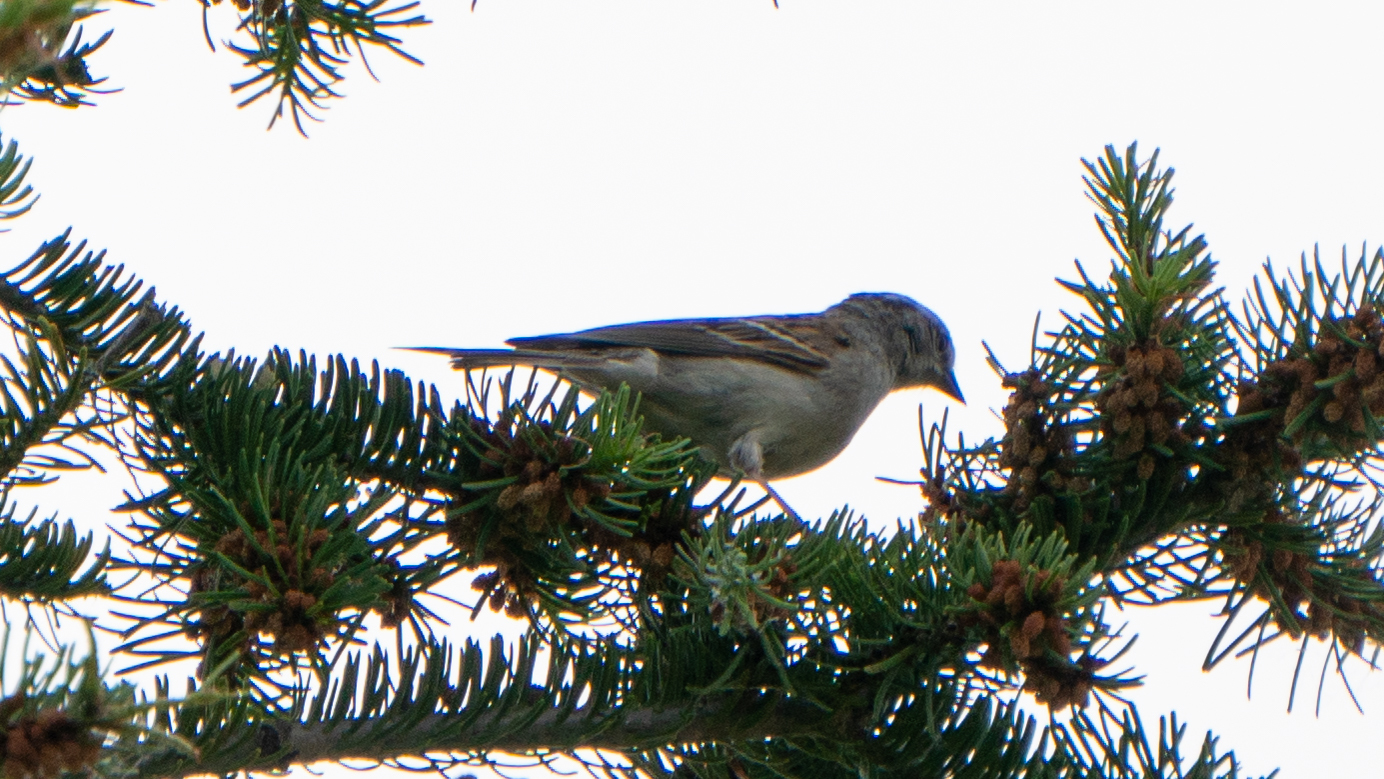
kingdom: Animalia
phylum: Chordata
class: Aves
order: Passeriformes
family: Passerellidae
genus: Spizella
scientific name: Spizella passerina
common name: Chipping sparrow
